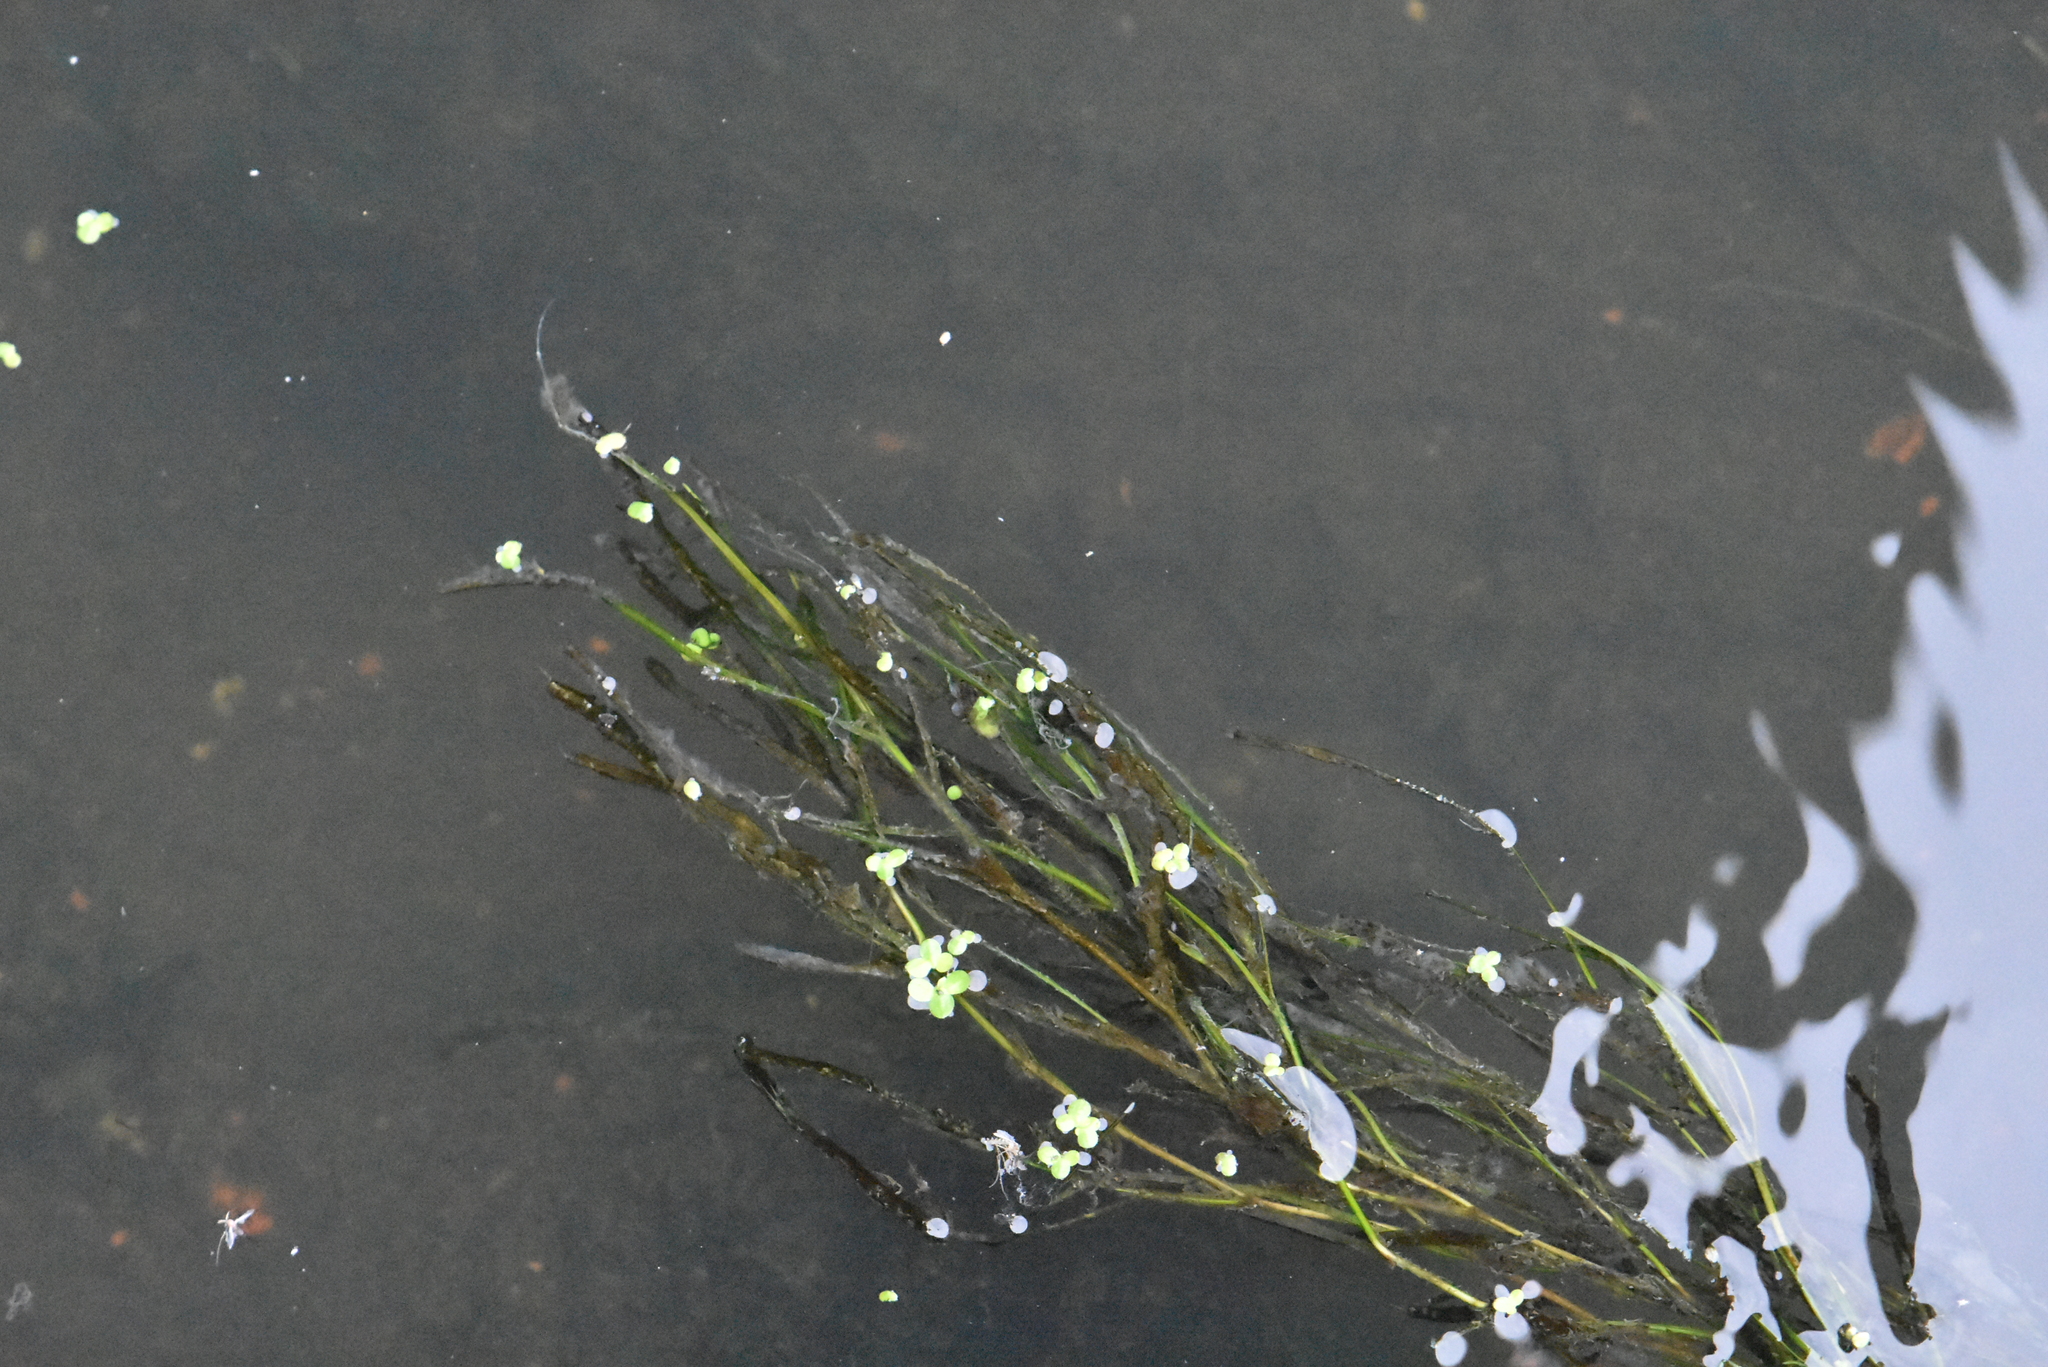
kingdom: Plantae
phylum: Tracheophyta
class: Liliopsida
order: Alismatales
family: Potamogetonaceae
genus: Stuckenia
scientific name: Stuckenia pectinata
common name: Sago pondweed
